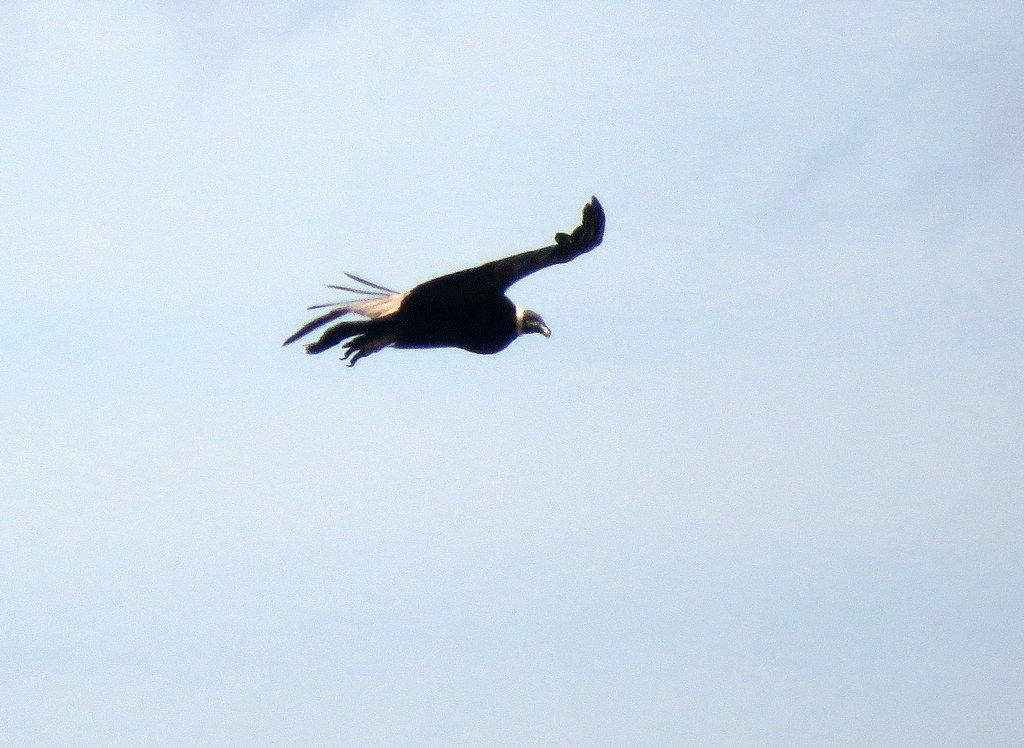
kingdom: Animalia
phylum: Chordata
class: Aves
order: Accipitriformes
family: Cathartidae
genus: Vultur
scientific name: Vultur gryphus
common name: Andean condor
